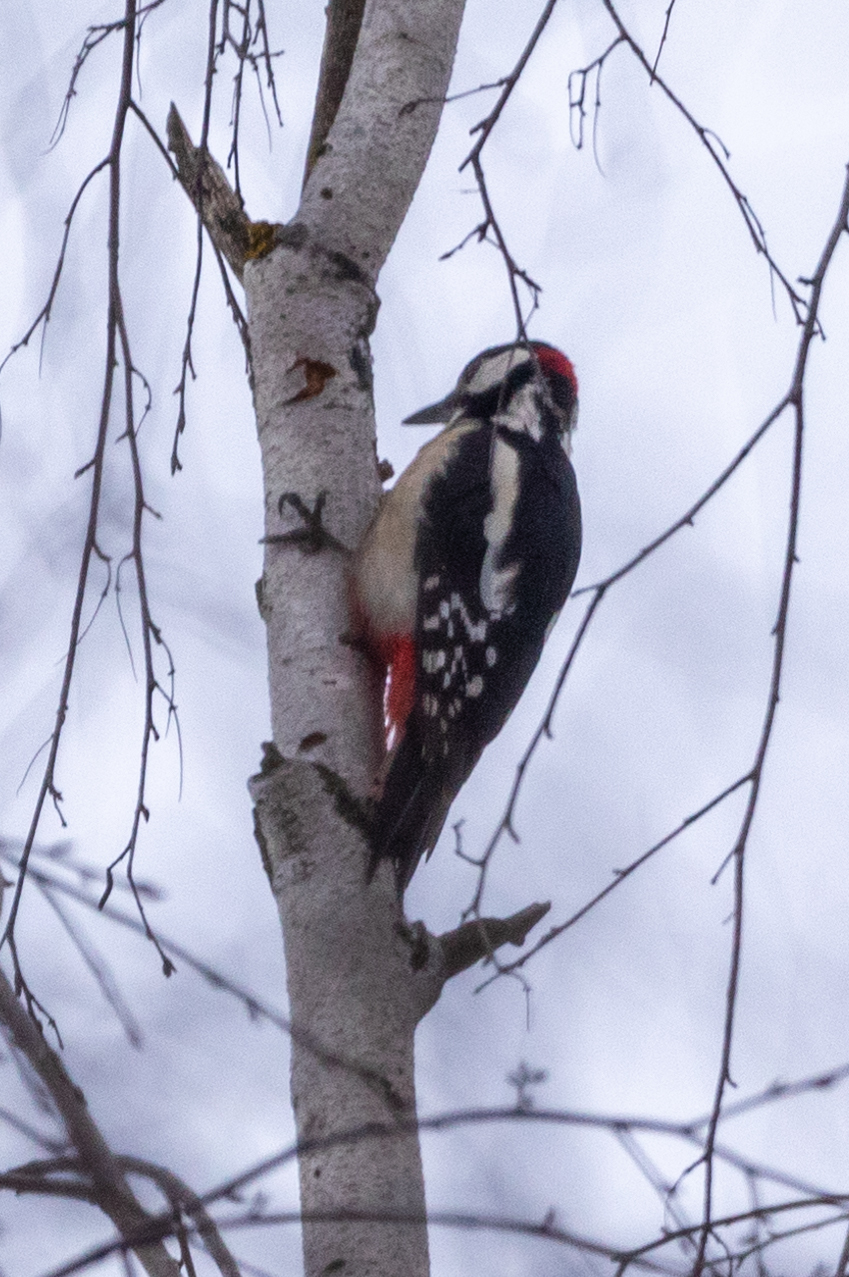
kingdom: Animalia
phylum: Chordata
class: Aves
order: Piciformes
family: Picidae
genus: Dendrocopos
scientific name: Dendrocopos major
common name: Great spotted woodpecker
